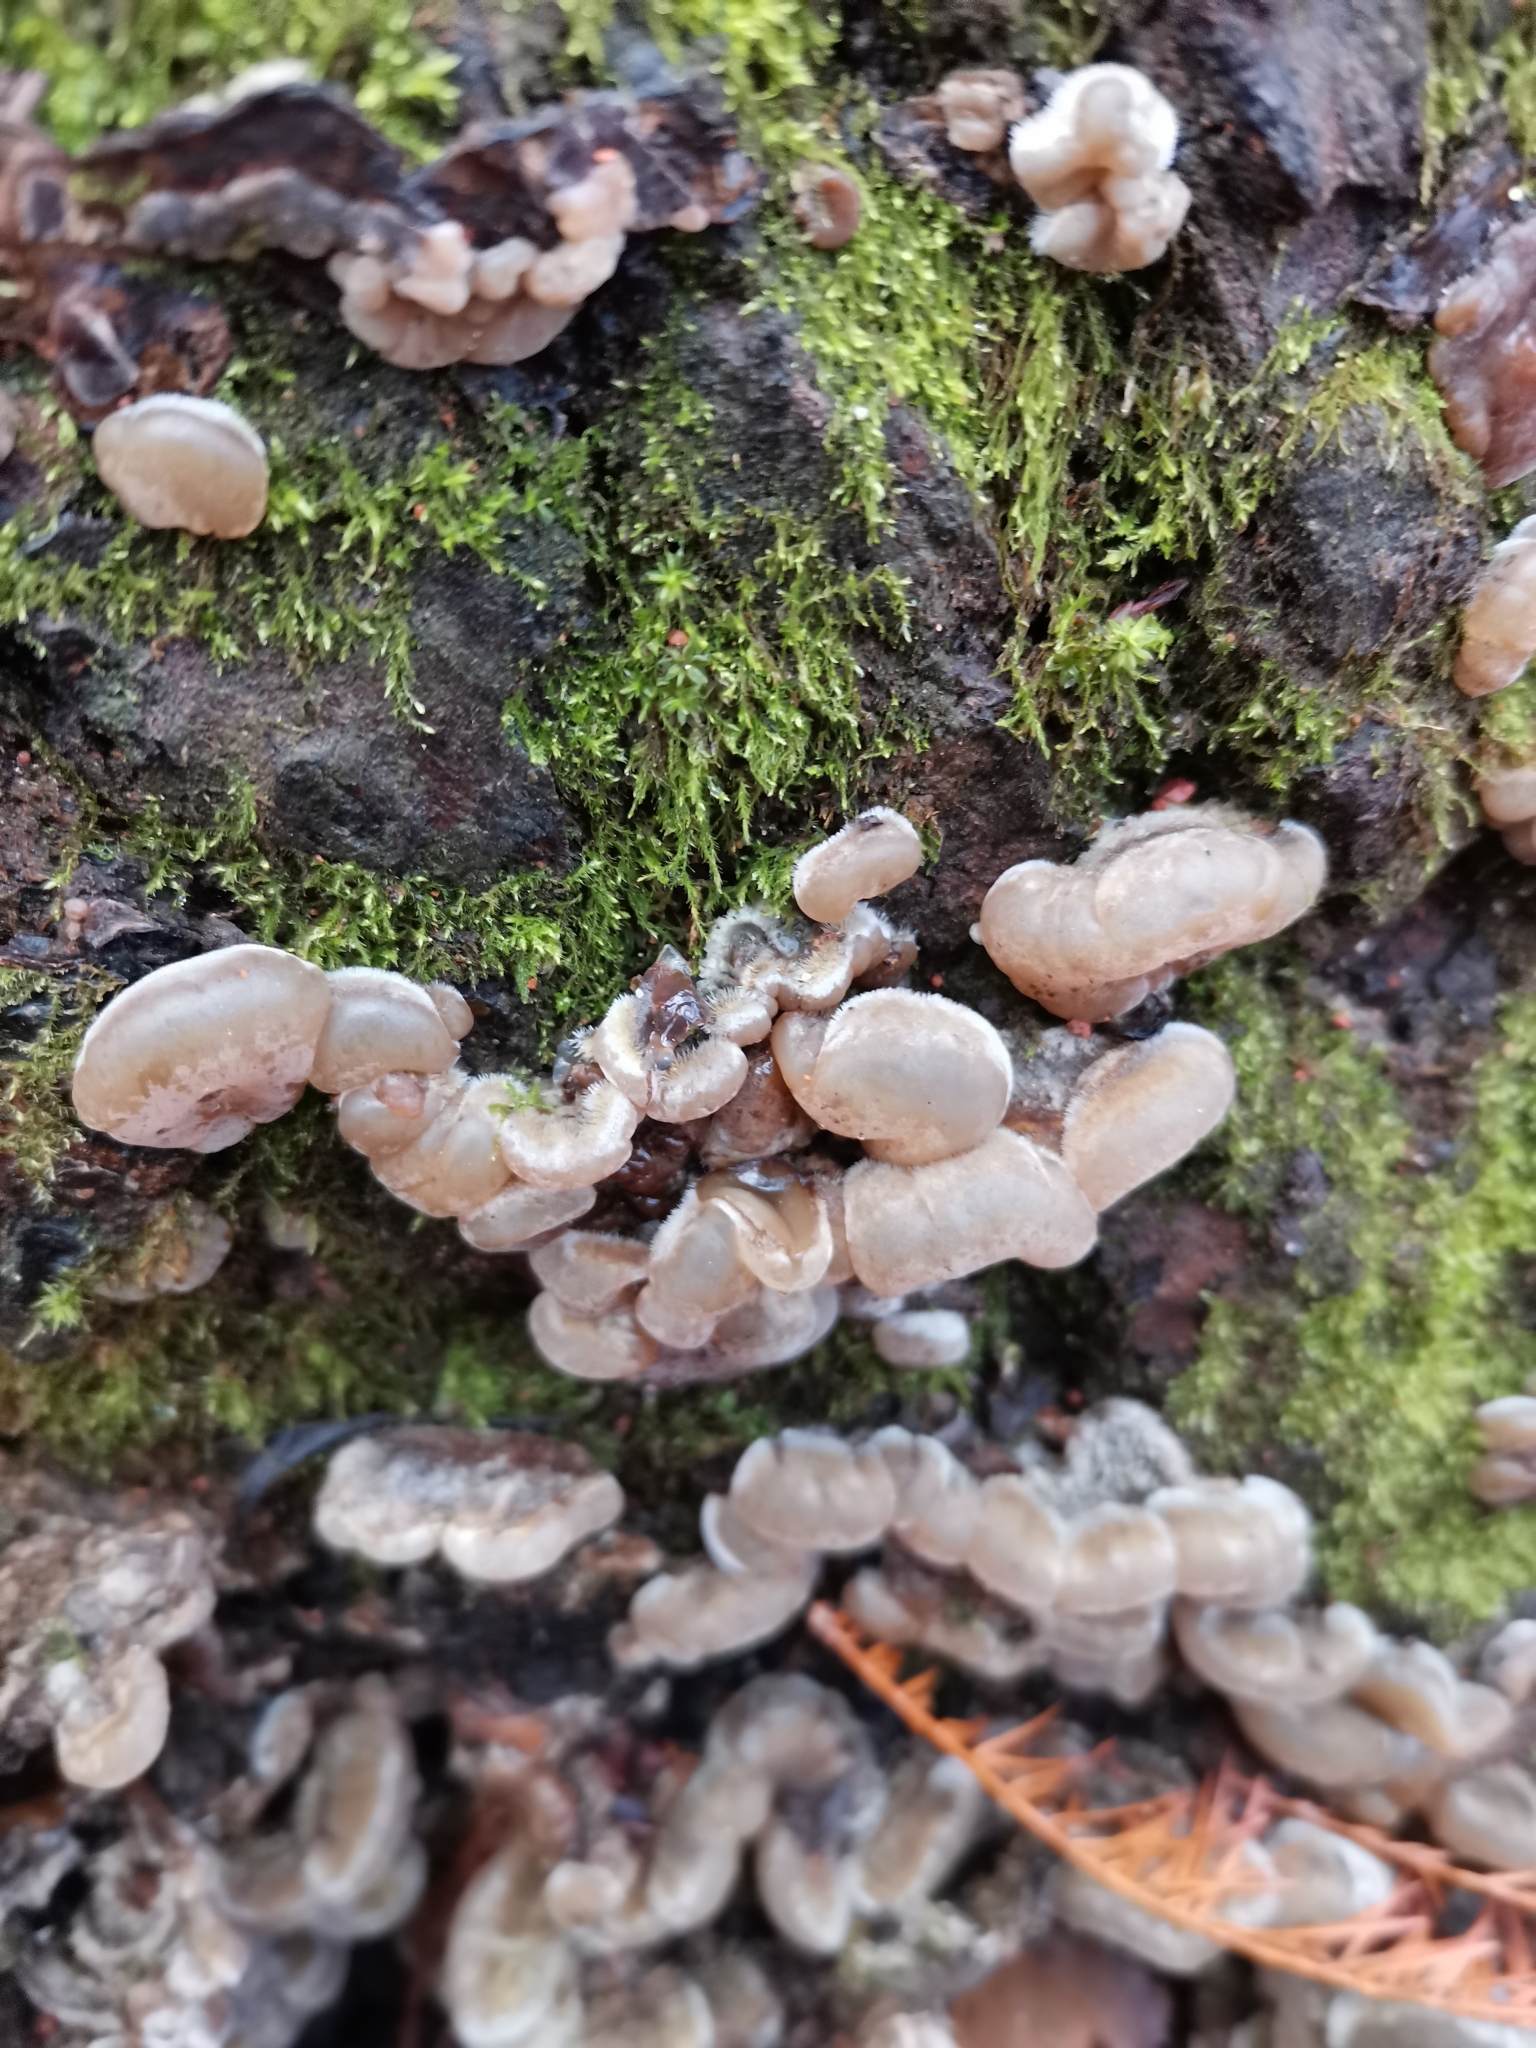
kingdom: Fungi
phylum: Basidiomycota
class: Agaricomycetes
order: Auriculariales
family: Auriculariaceae
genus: Auricularia
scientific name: Auricularia mesenterica
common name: Tripe fungus
